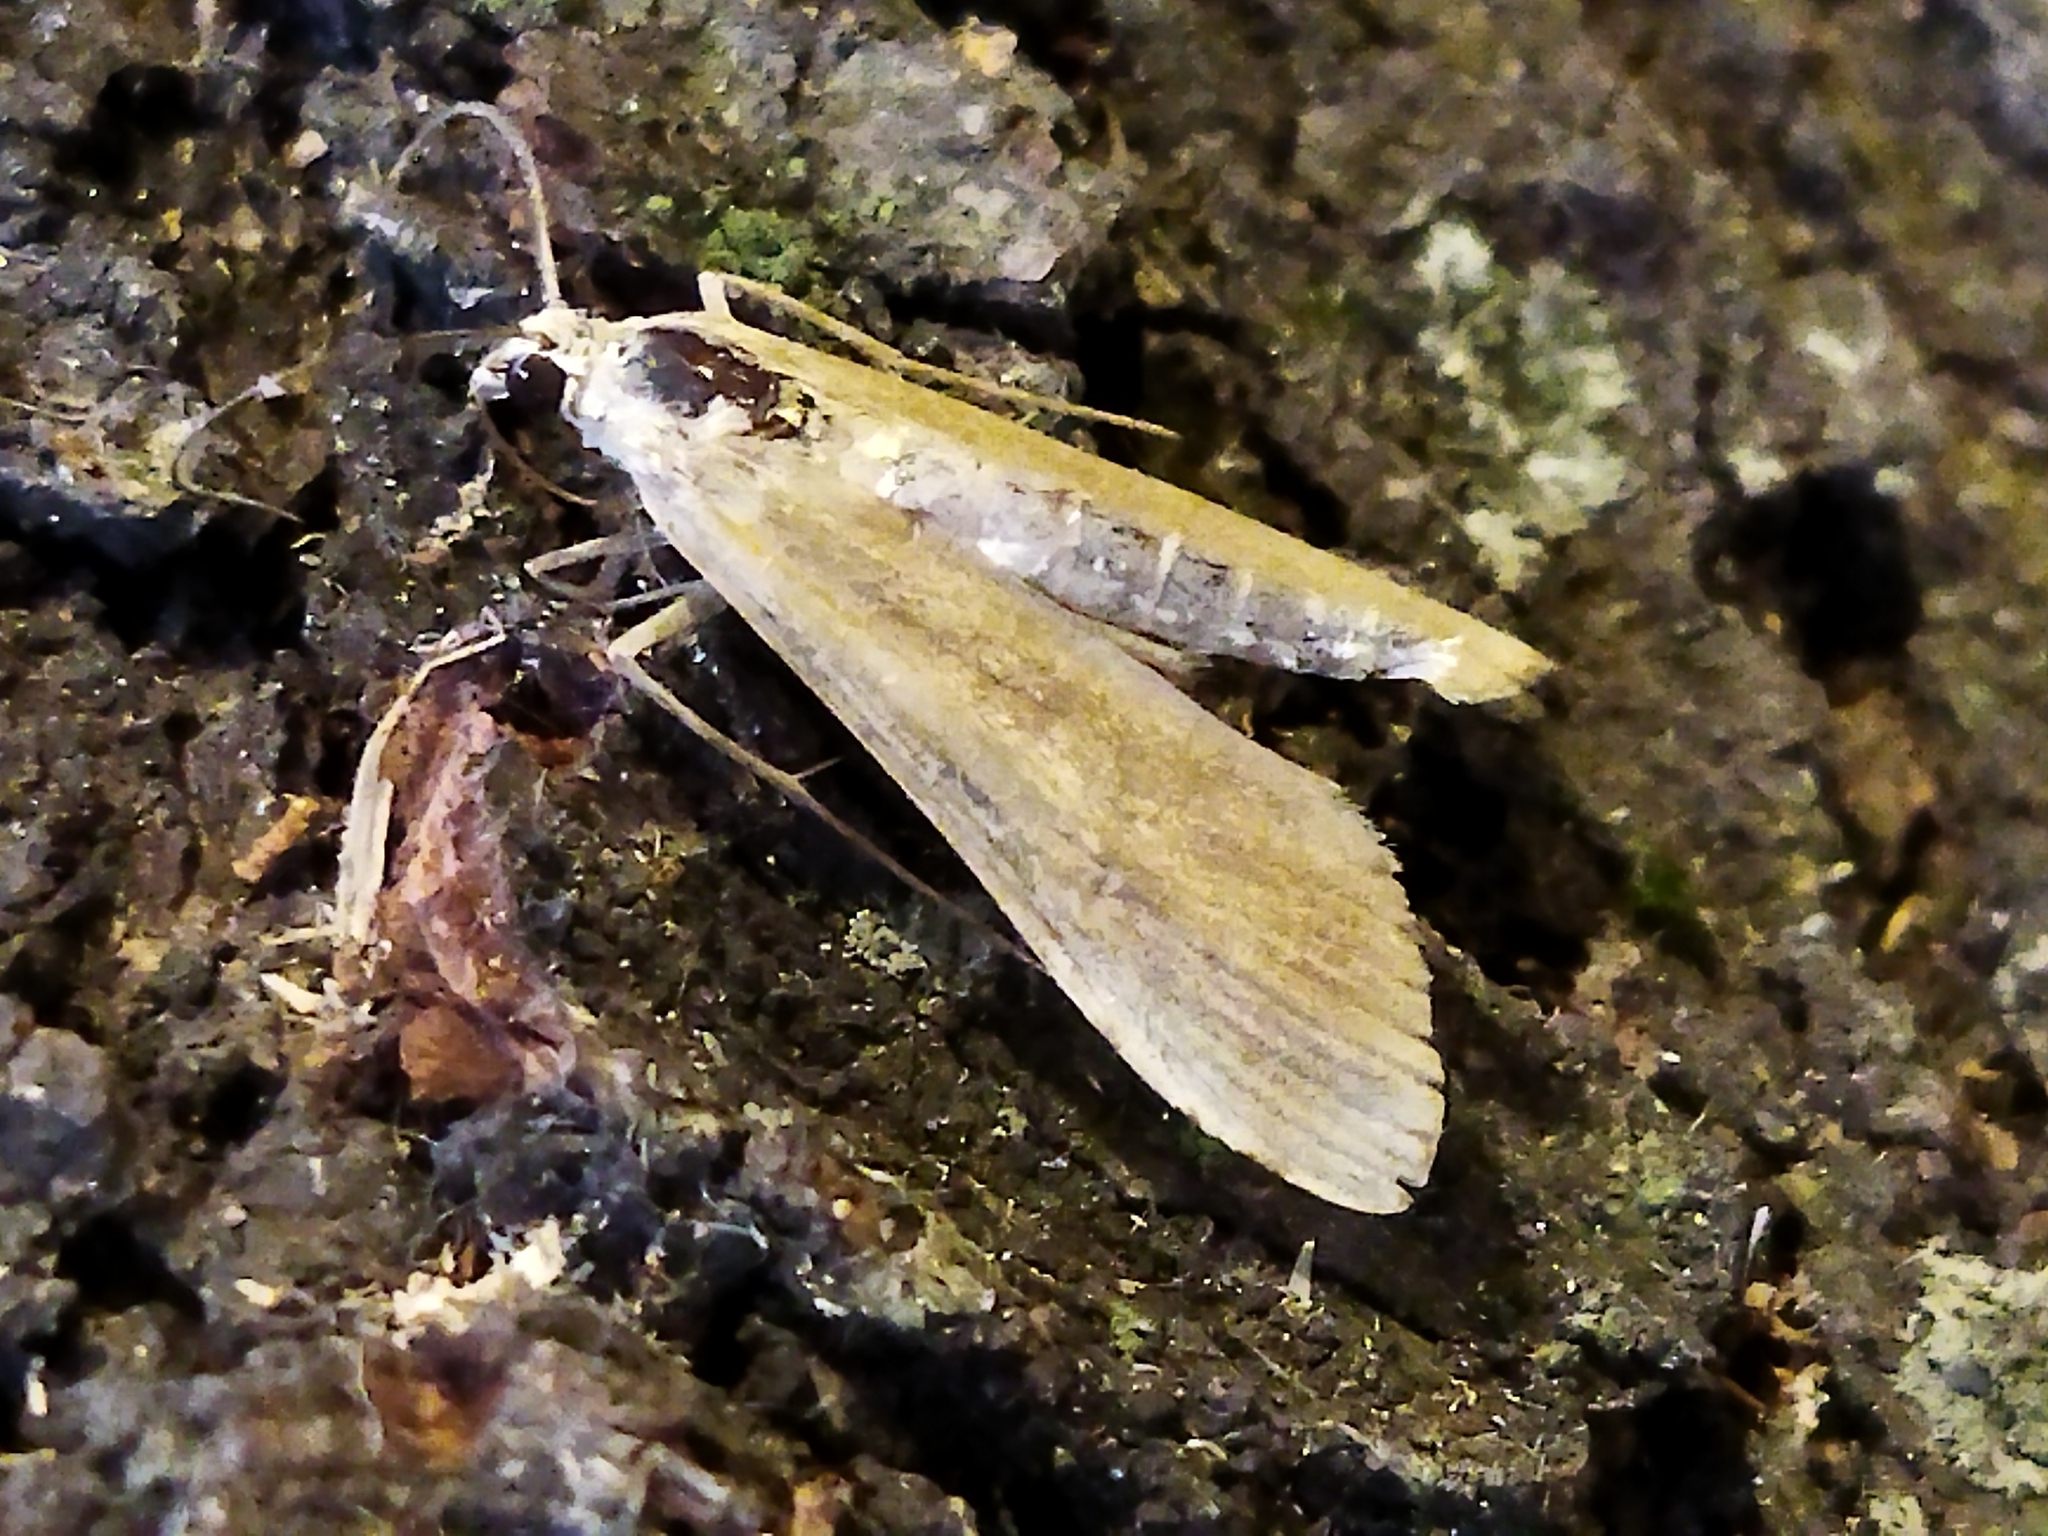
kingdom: Animalia
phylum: Arthropoda
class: Insecta
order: Lepidoptera
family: Crambidae
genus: Nomophila
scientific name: Nomophila noctuella
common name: Rush veneer
